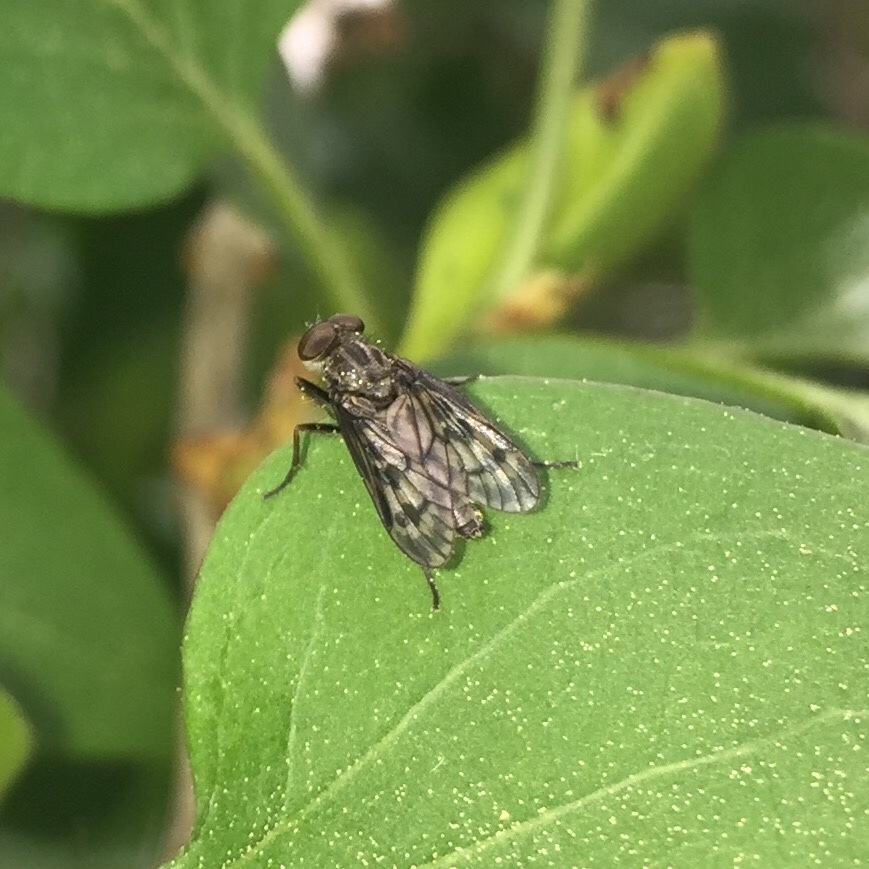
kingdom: Animalia
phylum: Arthropoda
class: Insecta
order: Diptera
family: Rhagionidae
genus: Rhagio
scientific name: Rhagio plumbeus
